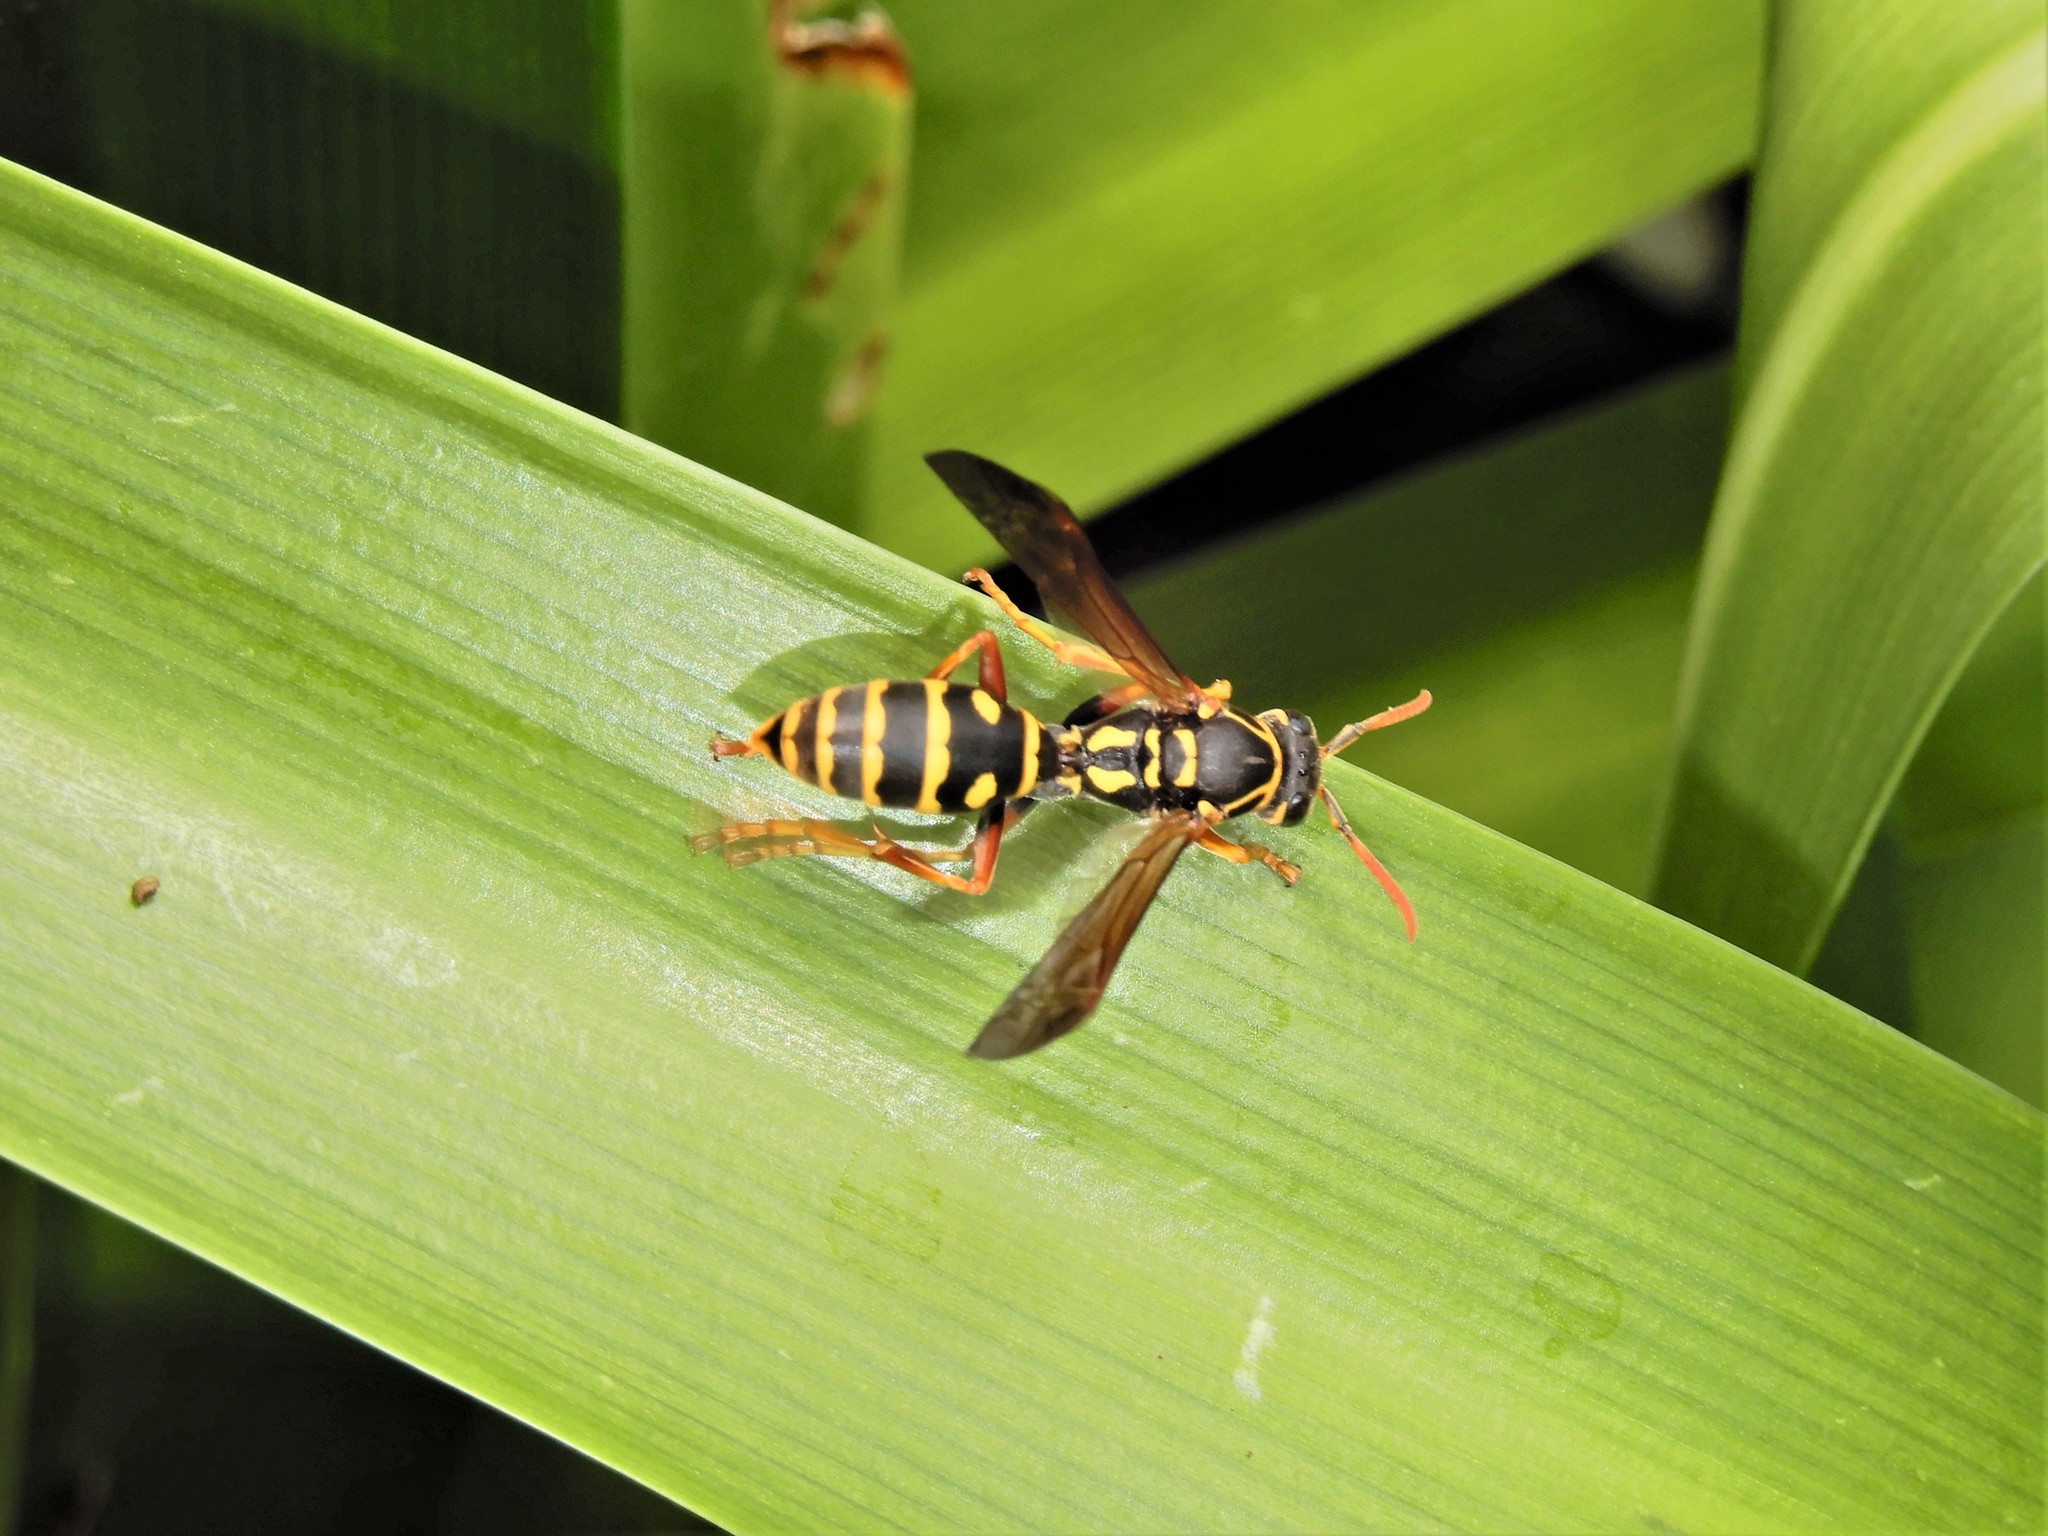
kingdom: Animalia
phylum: Arthropoda
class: Insecta
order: Hymenoptera
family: Eumenidae
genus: Polistes
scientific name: Polistes chinensis
